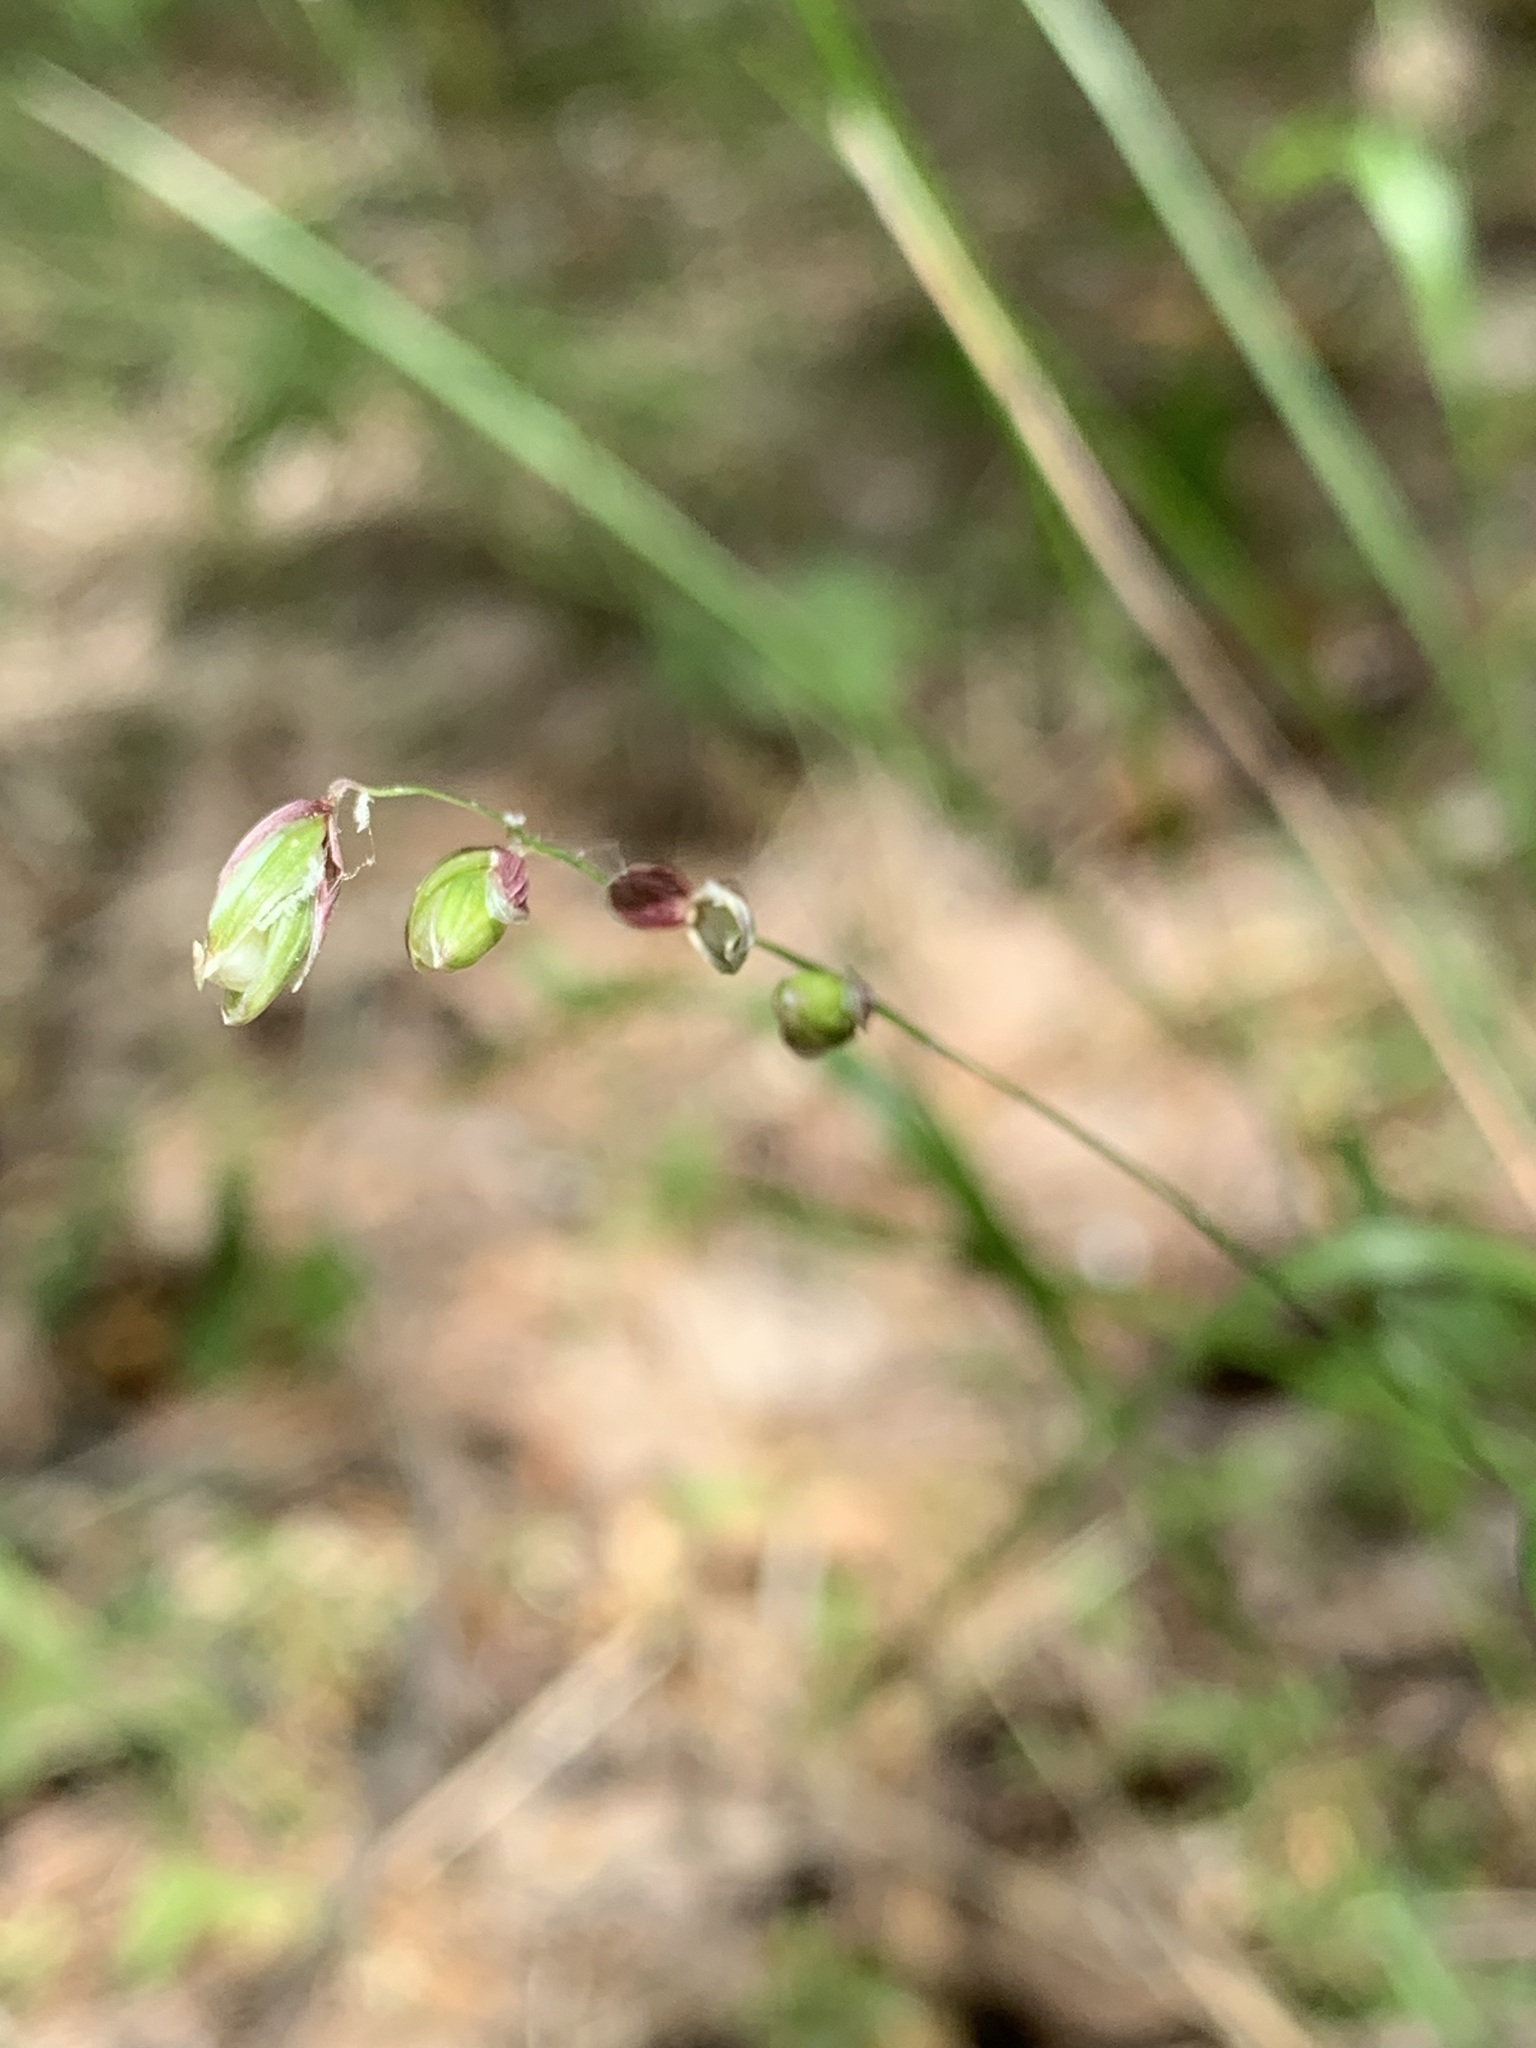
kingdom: Plantae
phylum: Tracheophyta
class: Liliopsida
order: Poales
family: Poaceae
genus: Melica
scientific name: Melica nutans
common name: Mountain melick
